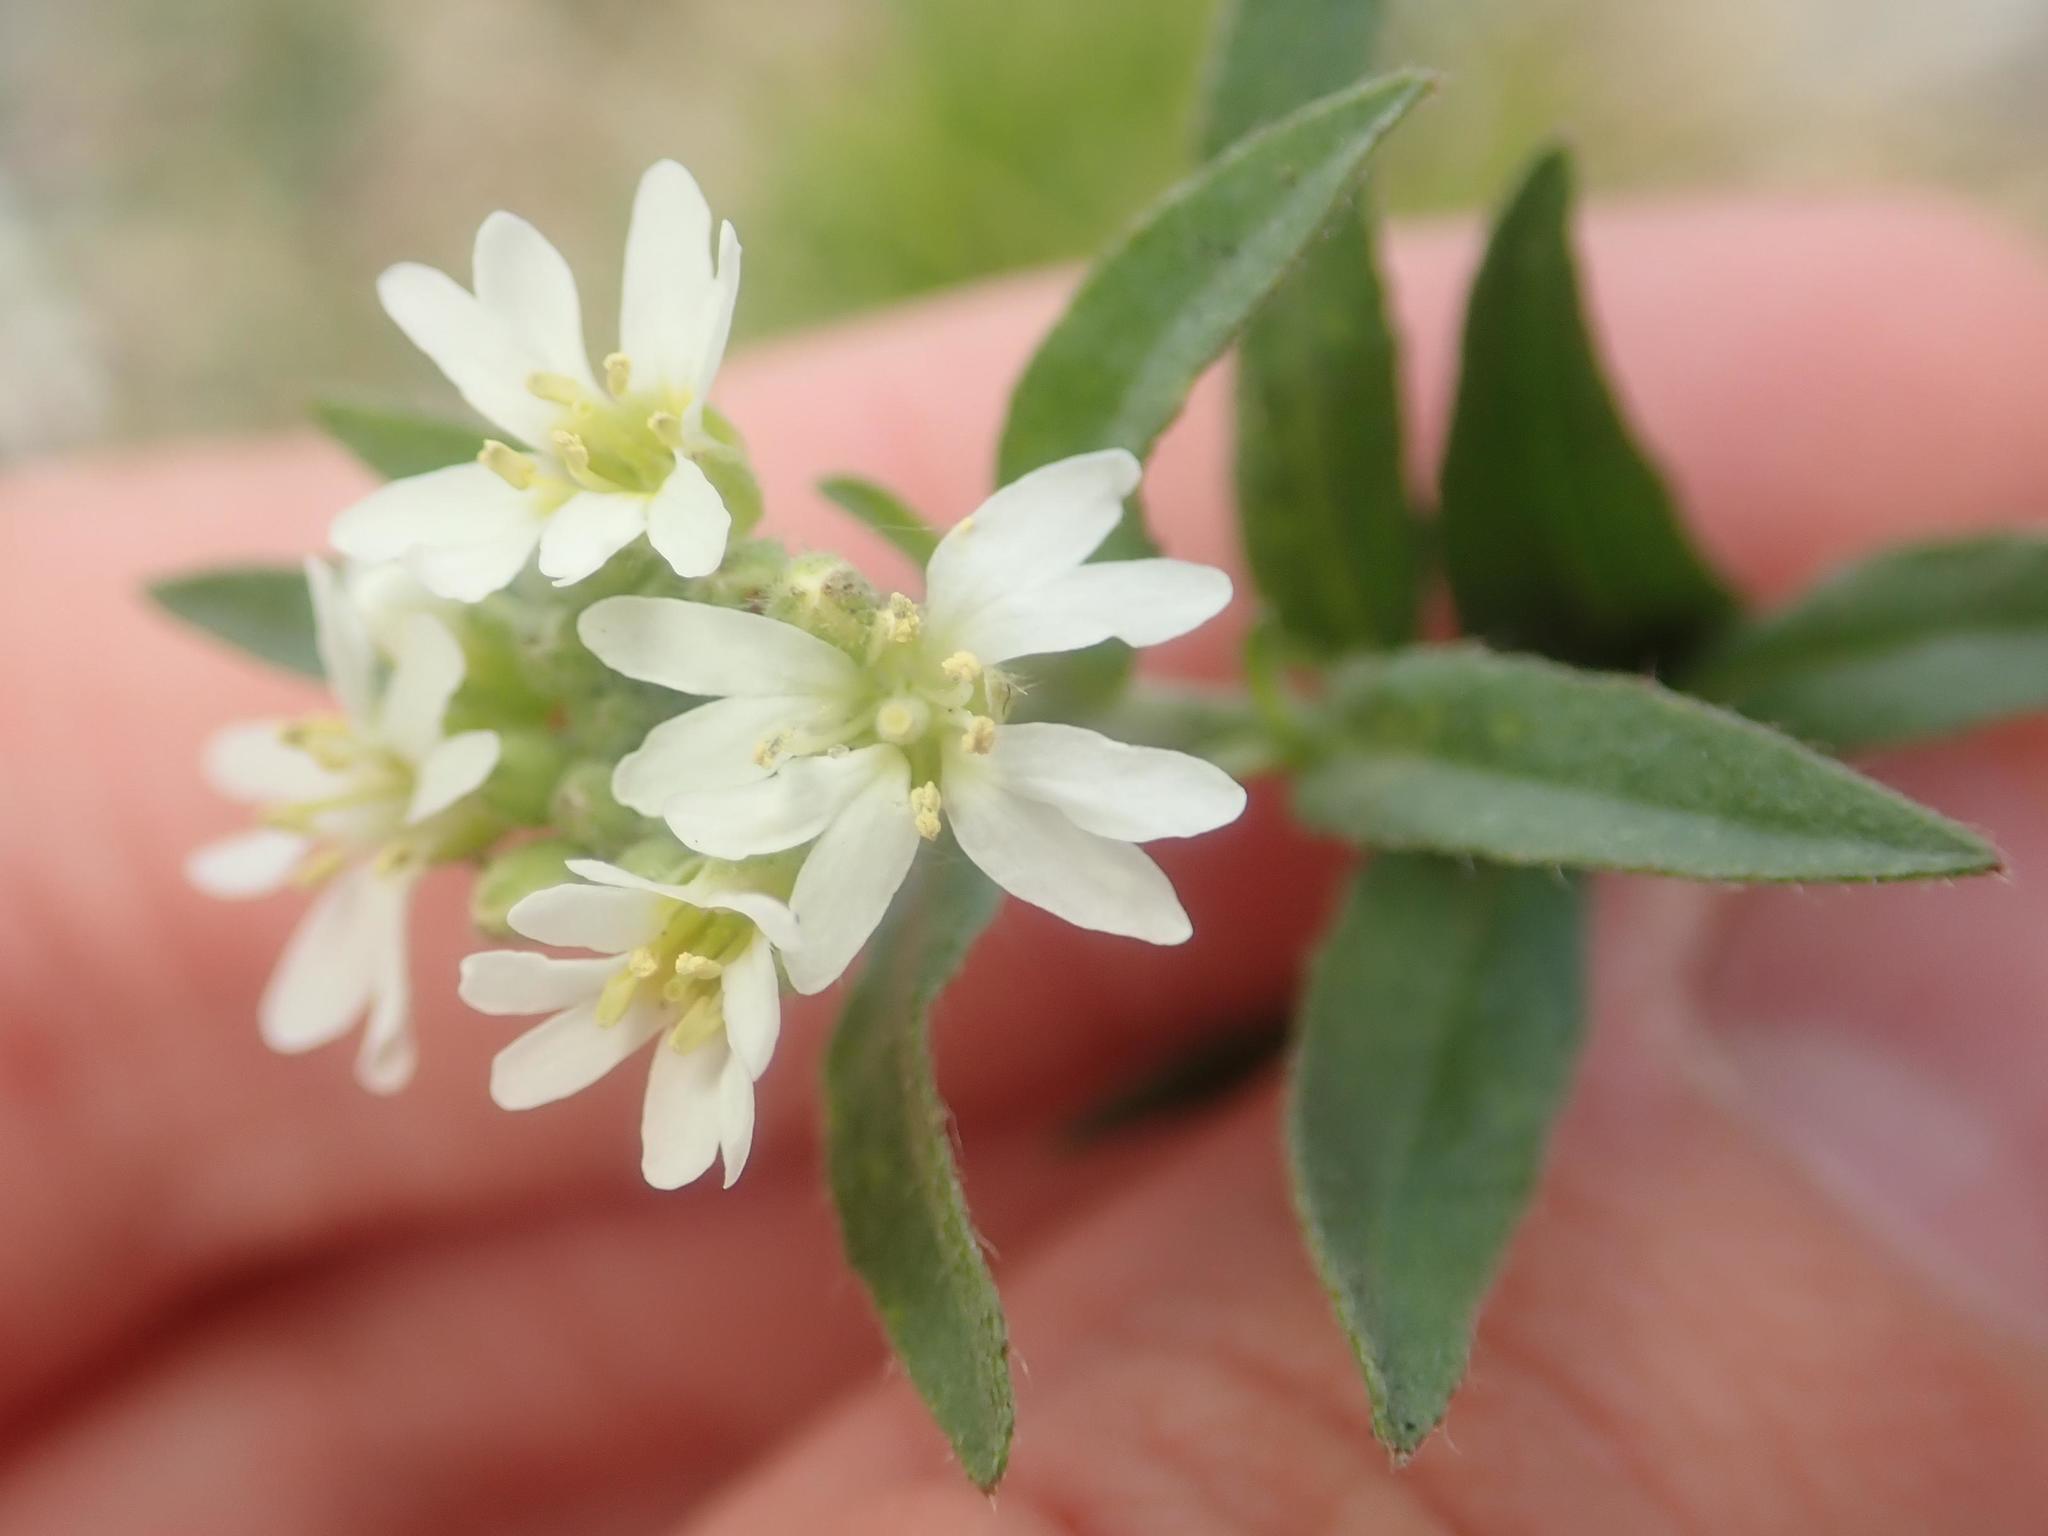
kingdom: Plantae
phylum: Tracheophyta
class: Magnoliopsida
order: Brassicales
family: Brassicaceae
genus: Berteroa
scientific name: Berteroa incana
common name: Hoary alison
